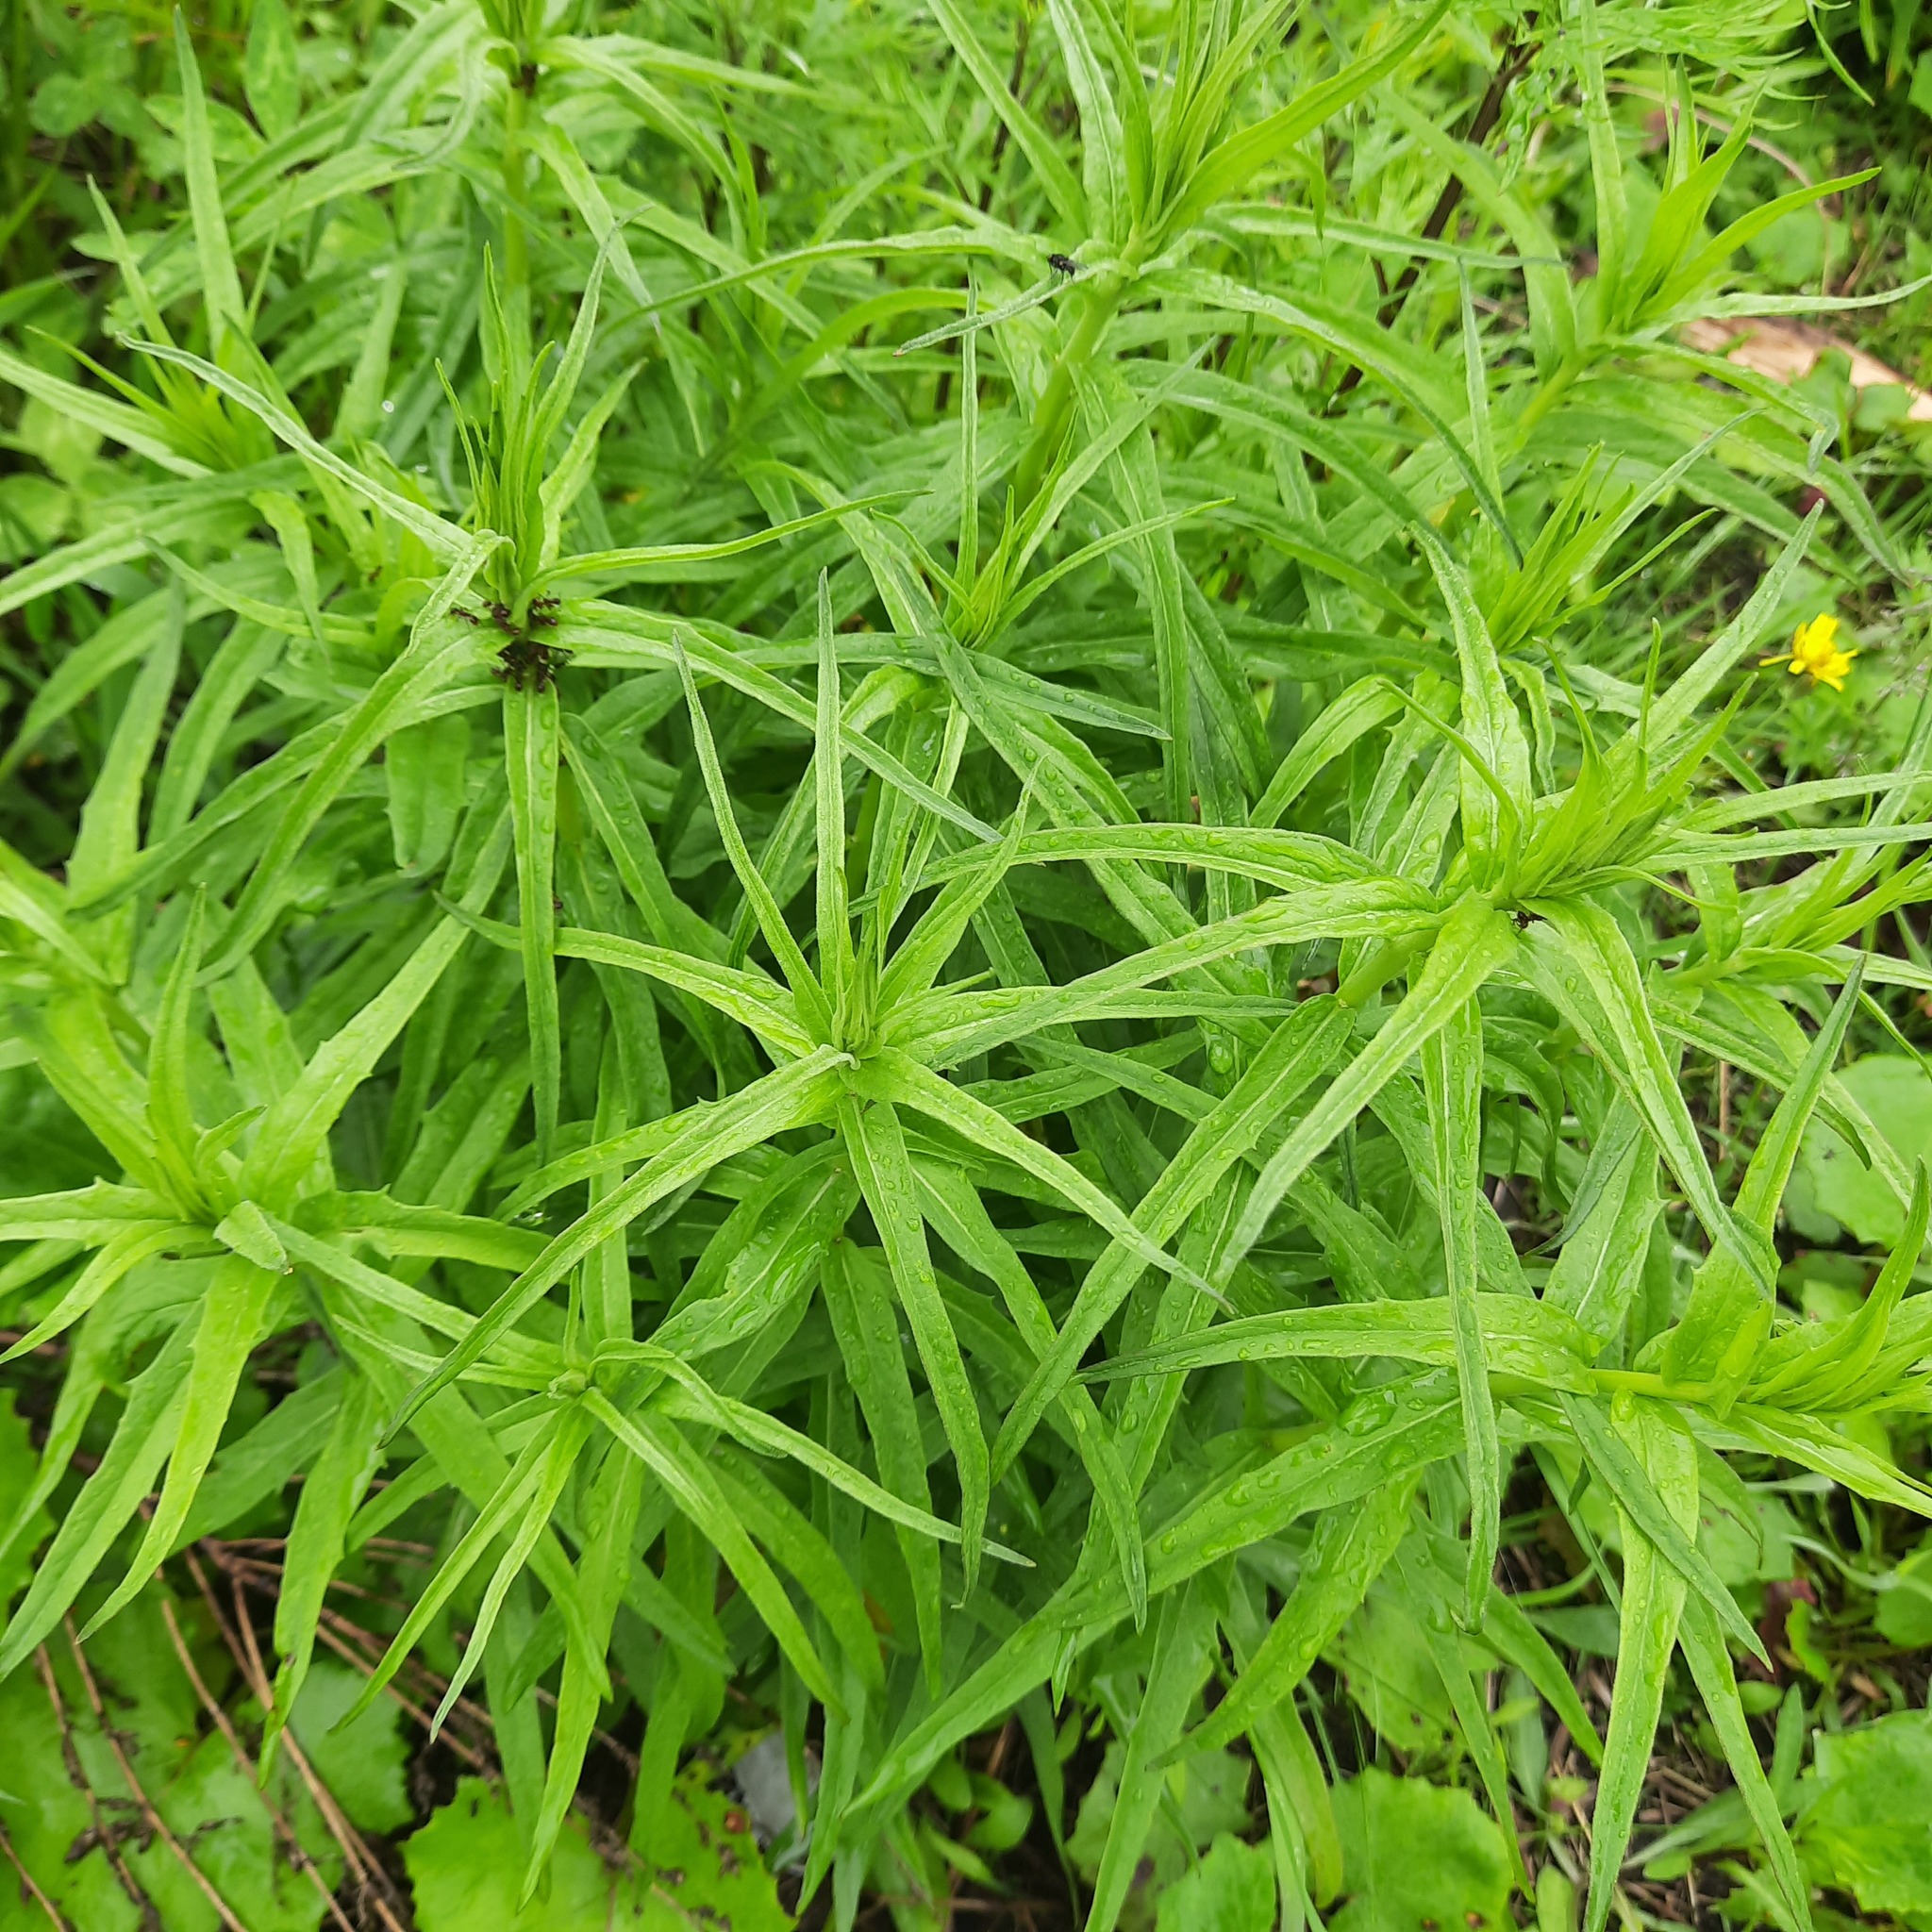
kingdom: Plantae
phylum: Tracheophyta
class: Magnoliopsida
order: Asterales
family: Asteraceae
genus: Hieracium
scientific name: Hieracium umbellatum
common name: Northern hawkweed
